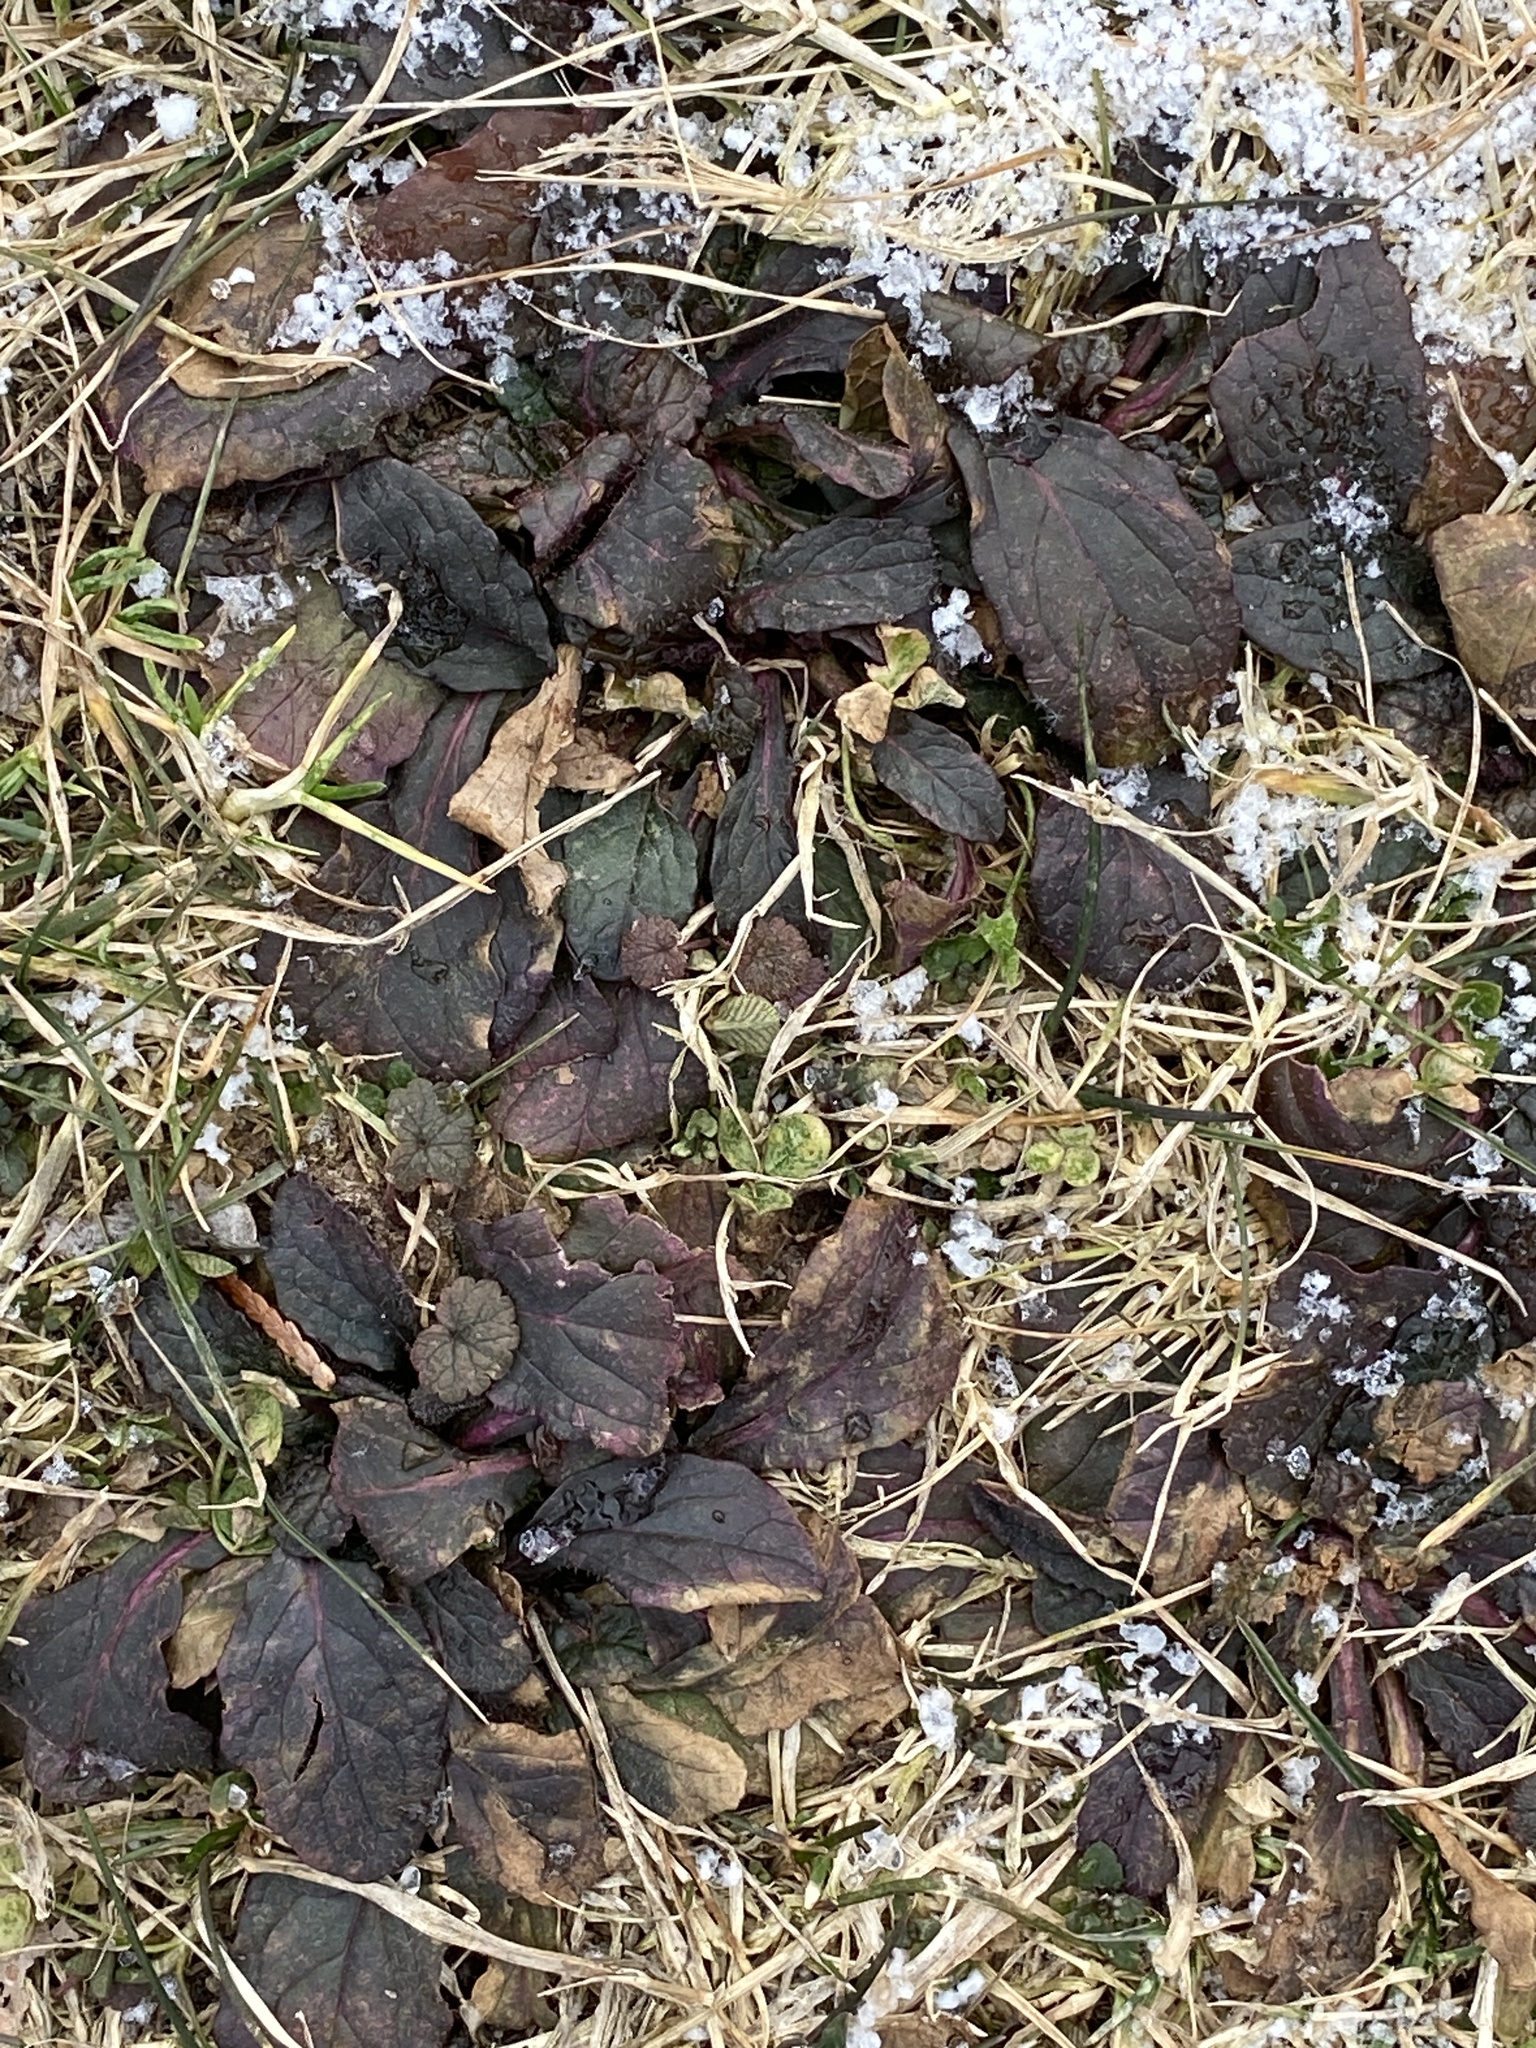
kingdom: Plantae
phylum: Tracheophyta
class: Magnoliopsida
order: Lamiales
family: Lamiaceae
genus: Ajuga
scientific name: Ajuga reptans
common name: Bugle
